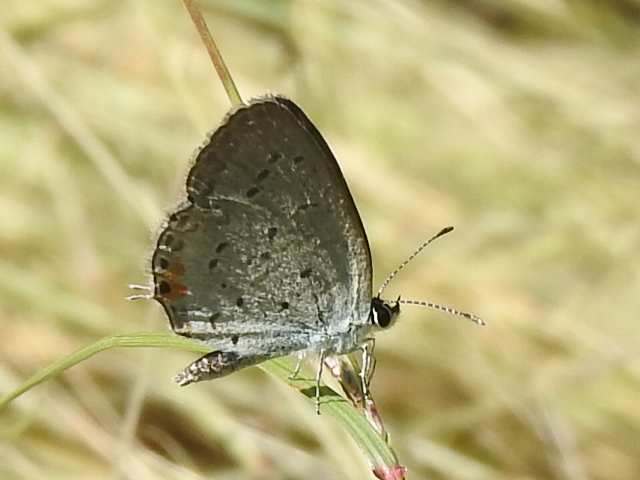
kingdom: Animalia
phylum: Arthropoda
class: Insecta
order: Lepidoptera
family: Lycaenidae
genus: Elkalyce
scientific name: Elkalyce comyntas
